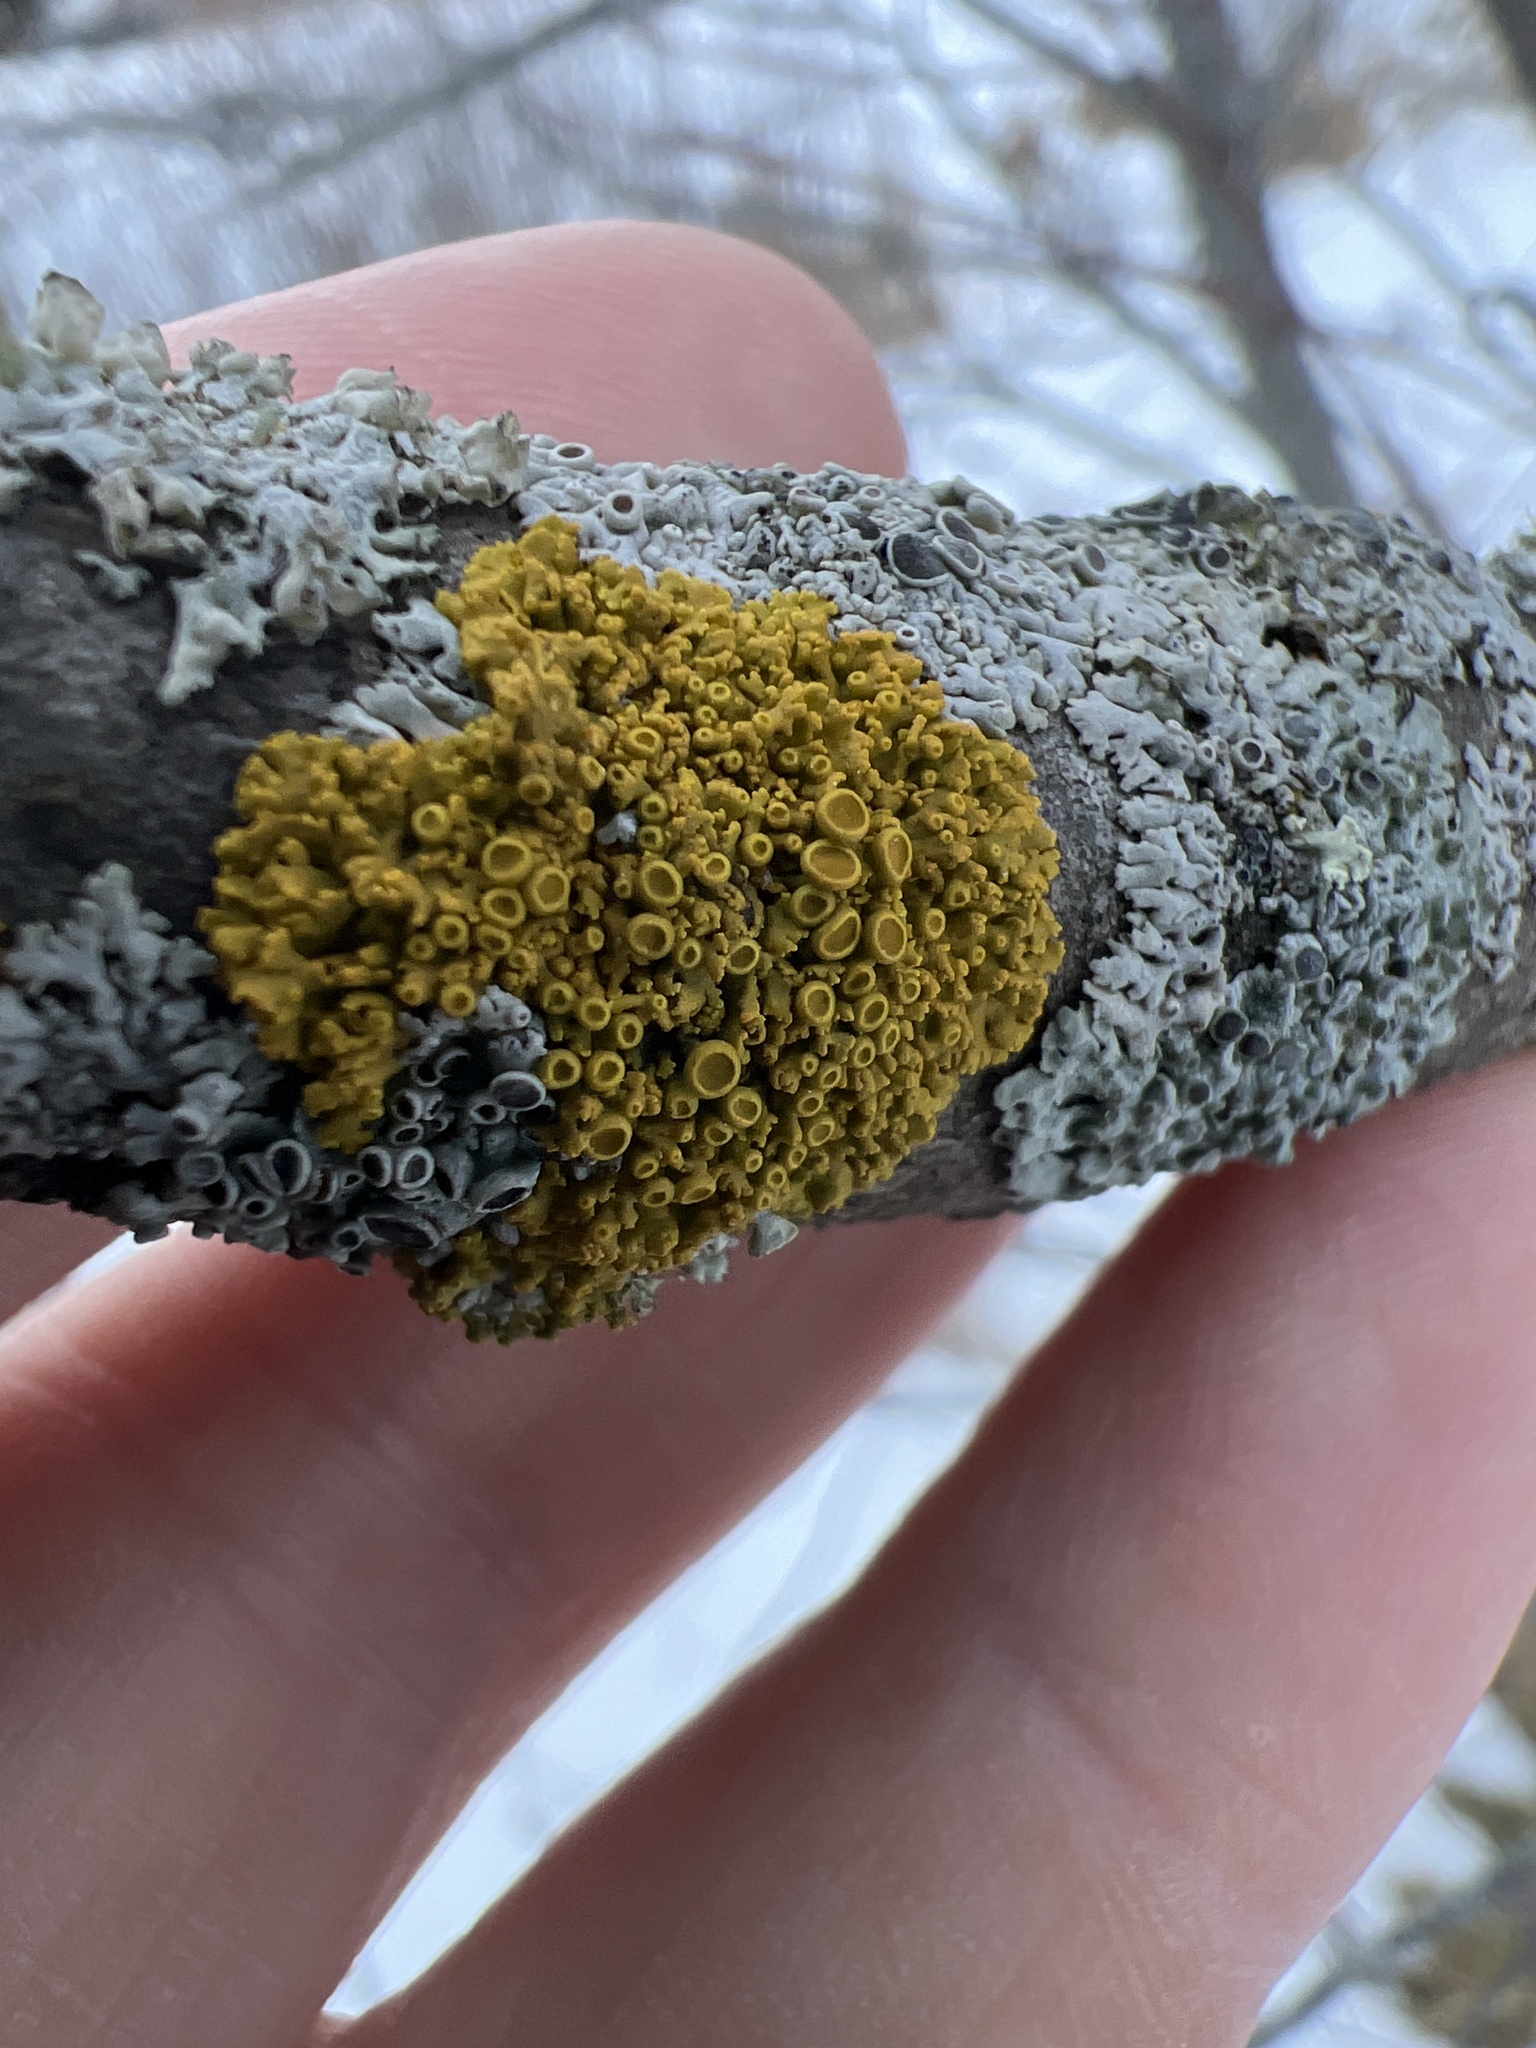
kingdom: Fungi
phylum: Ascomycota
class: Lecanoromycetes
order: Teloschistales
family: Teloschistaceae
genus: Gallowayella
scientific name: Gallowayella hasseana
